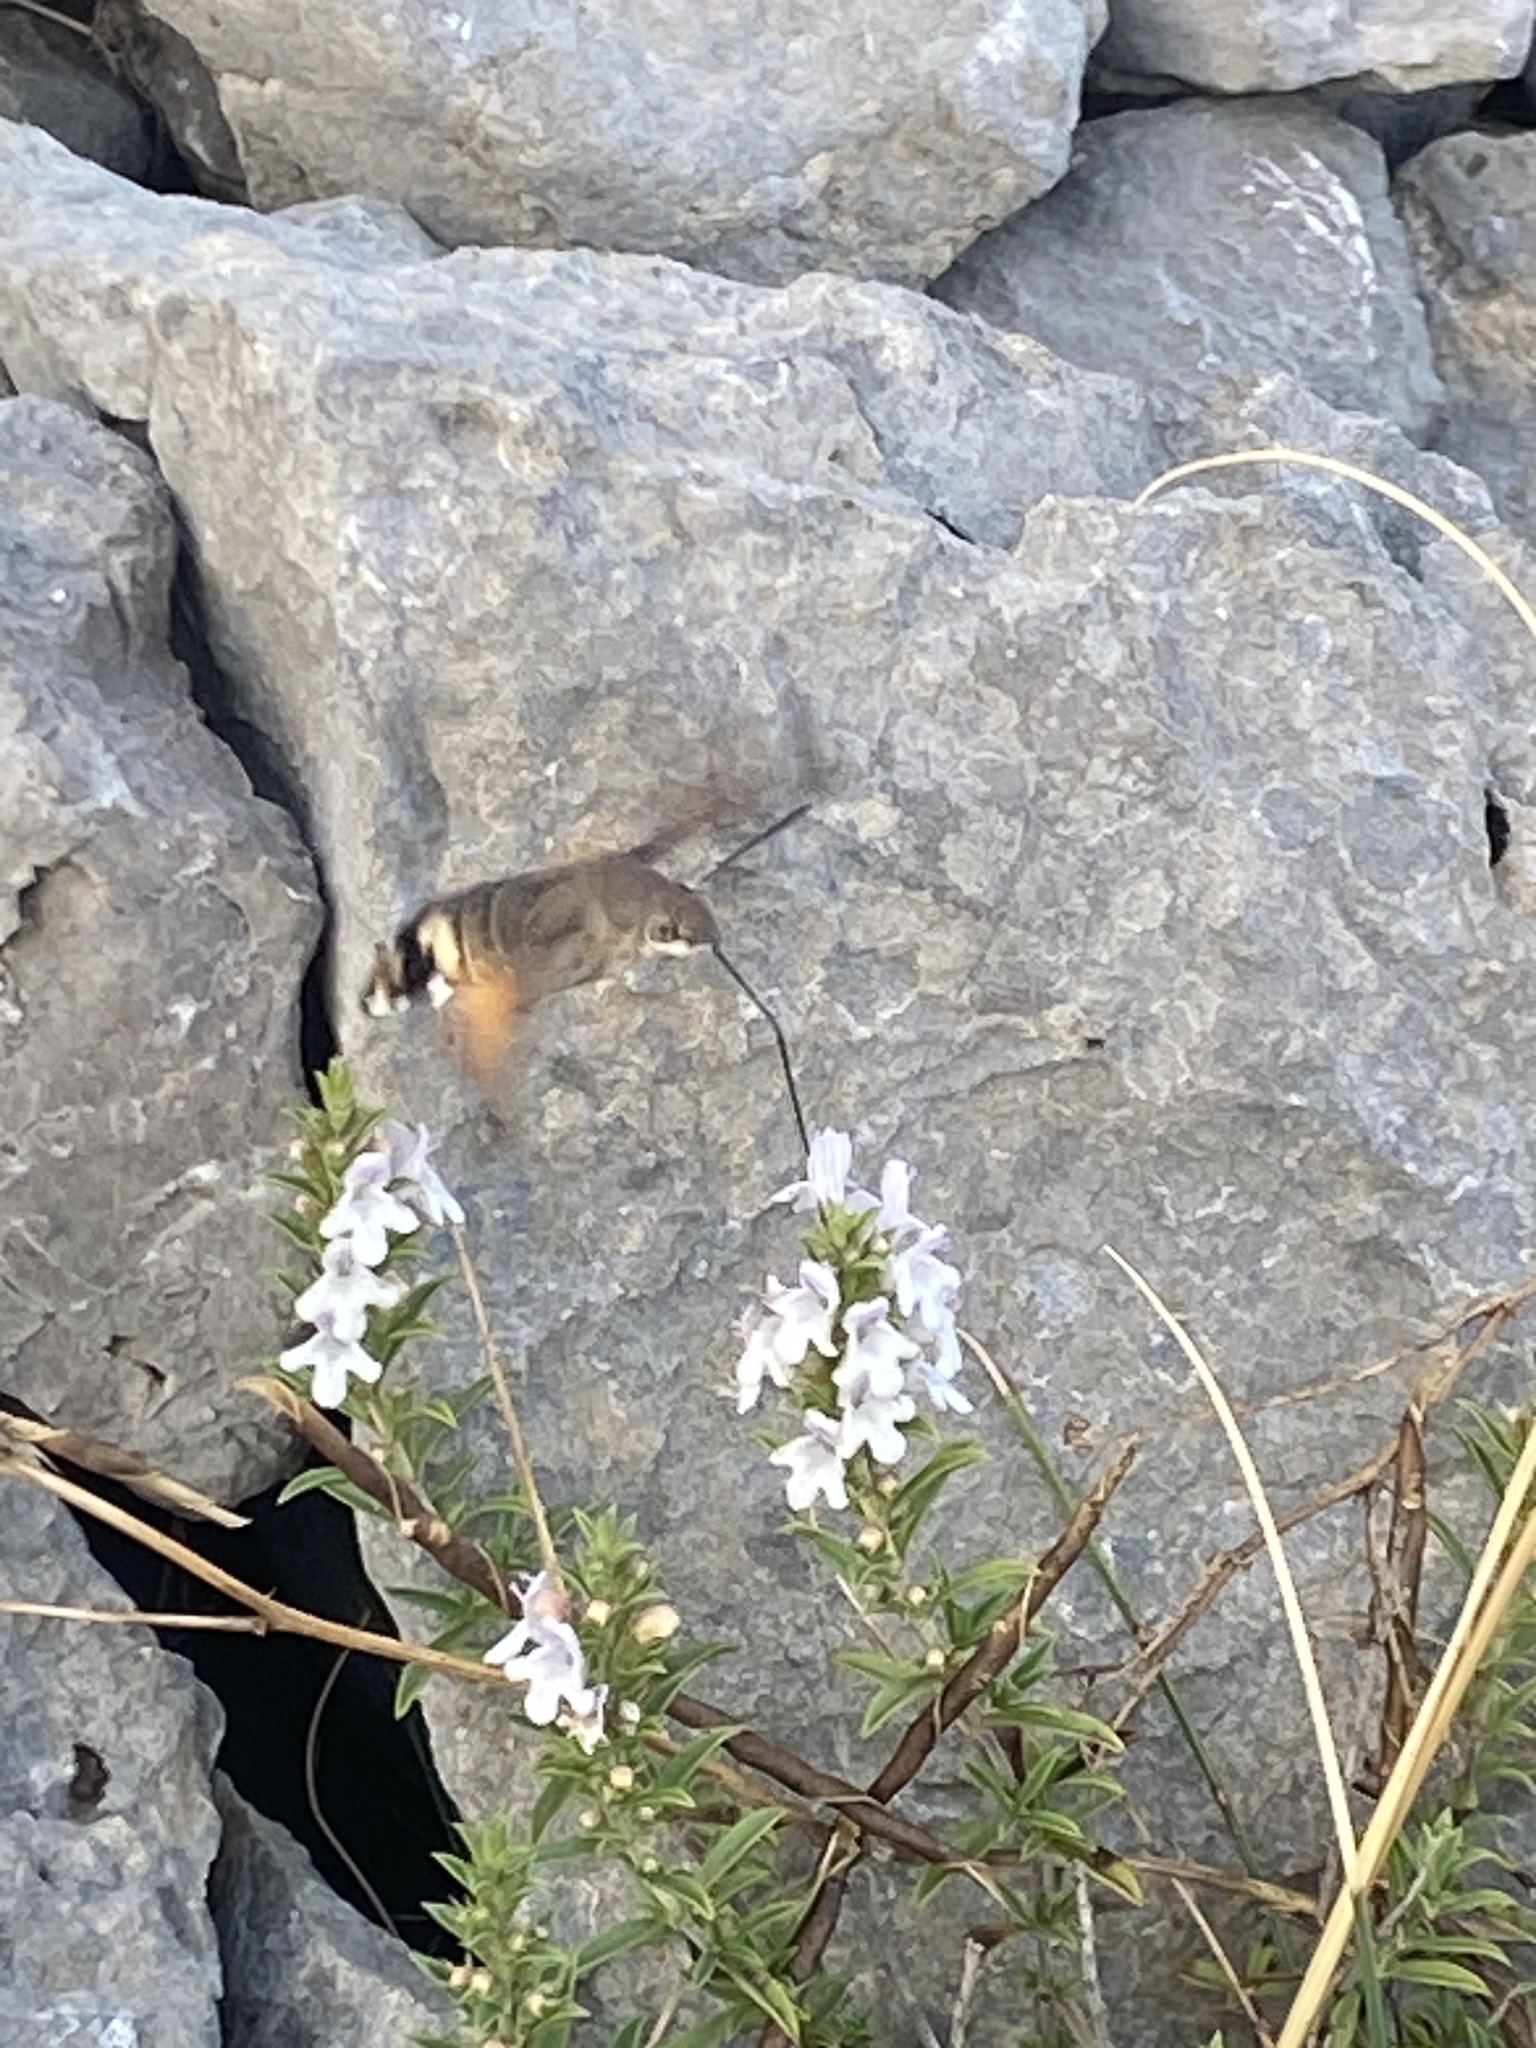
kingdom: Animalia
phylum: Arthropoda
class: Insecta
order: Lepidoptera
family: Sphingidae
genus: Macroglossum
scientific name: Macroglossum stellatarum
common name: Humming-bird hawk-moth
